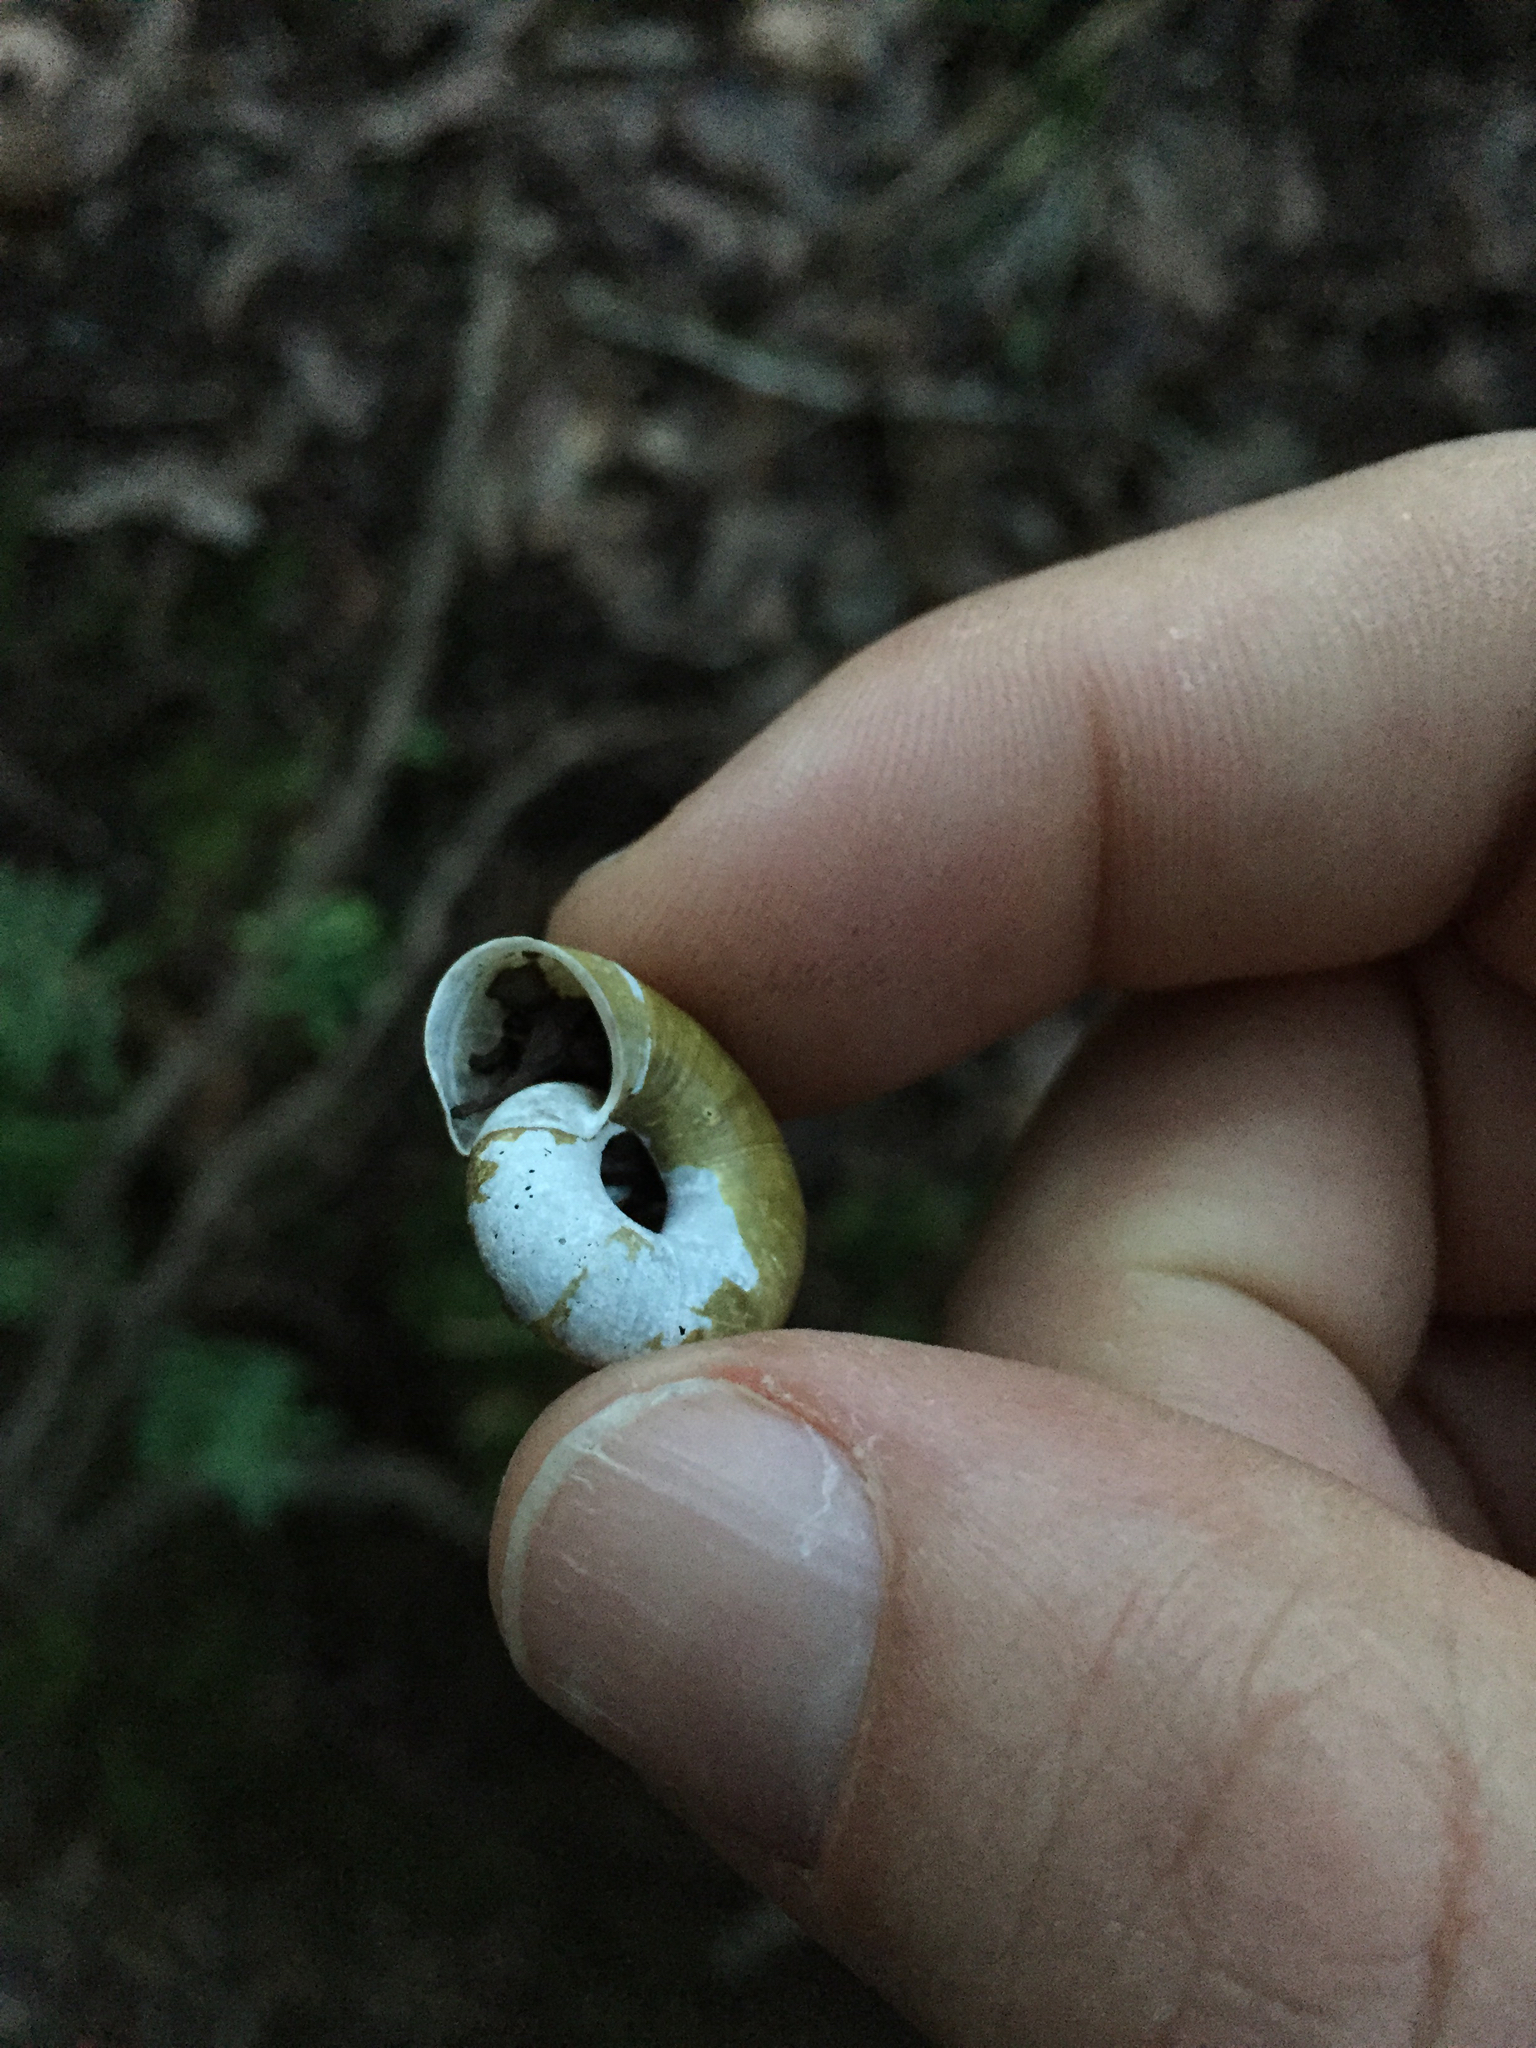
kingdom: Animalia
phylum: Mollusca
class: Gastropoda
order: Stylommatophora
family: Haplotrematidae
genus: Haplotrema
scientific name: Haplotrema minimum
